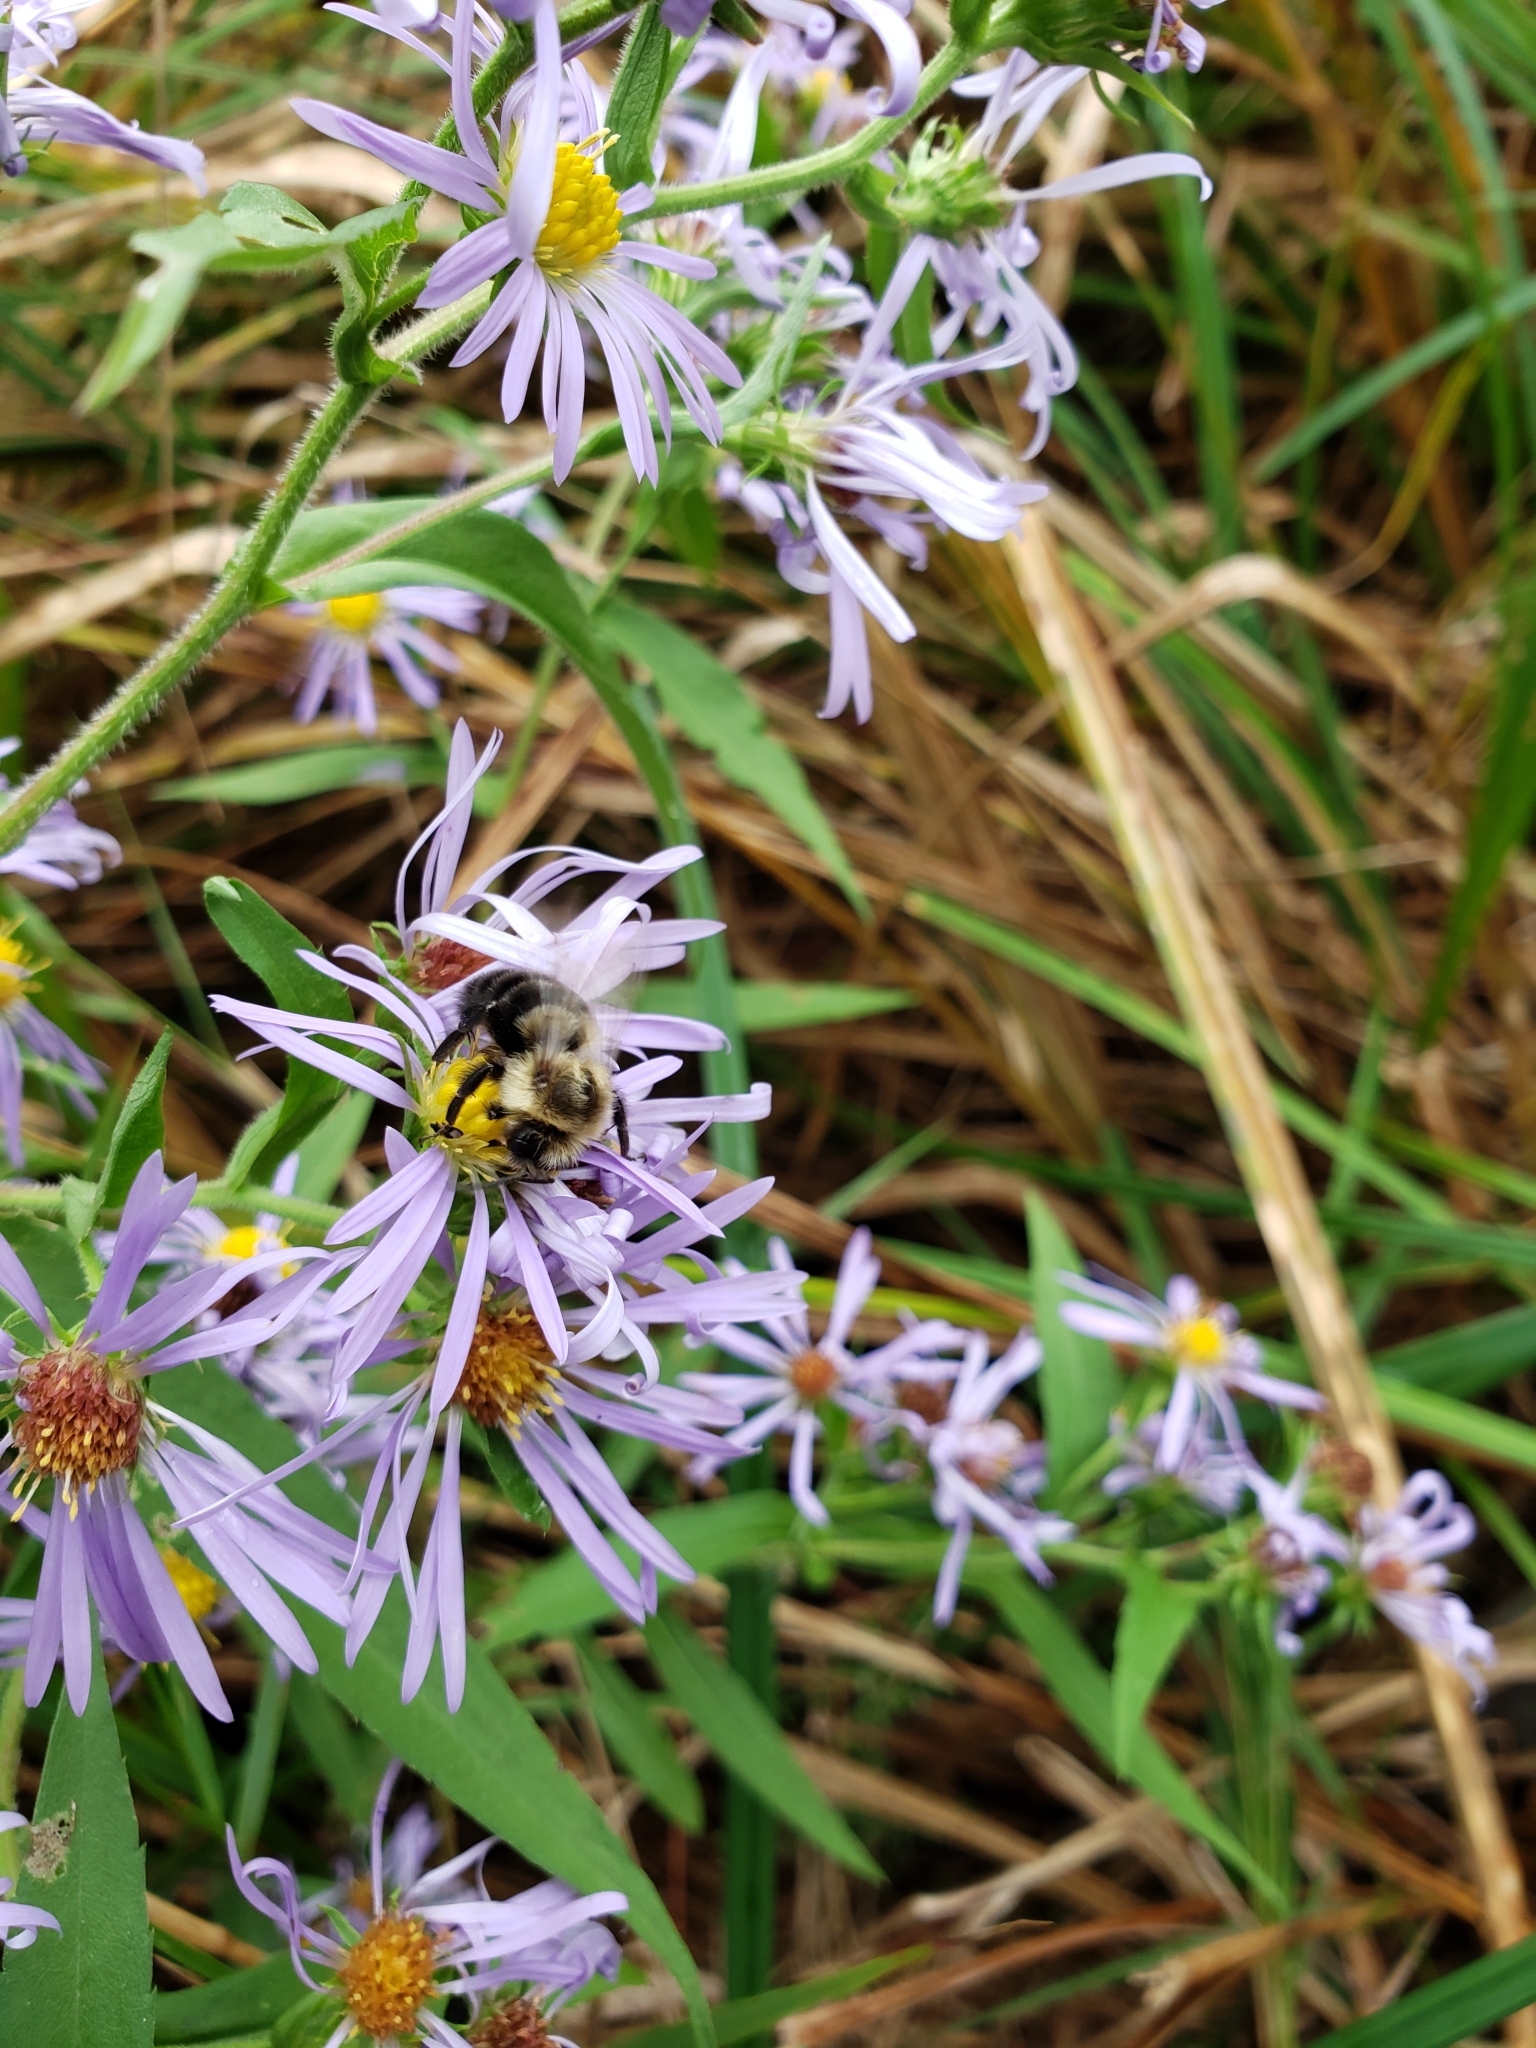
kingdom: Animalia
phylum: Arthropoda
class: Insecta
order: Hymenoptera
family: Apidae
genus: Bombus
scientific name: Bombus impatiens
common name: Common eastern bumble bee
